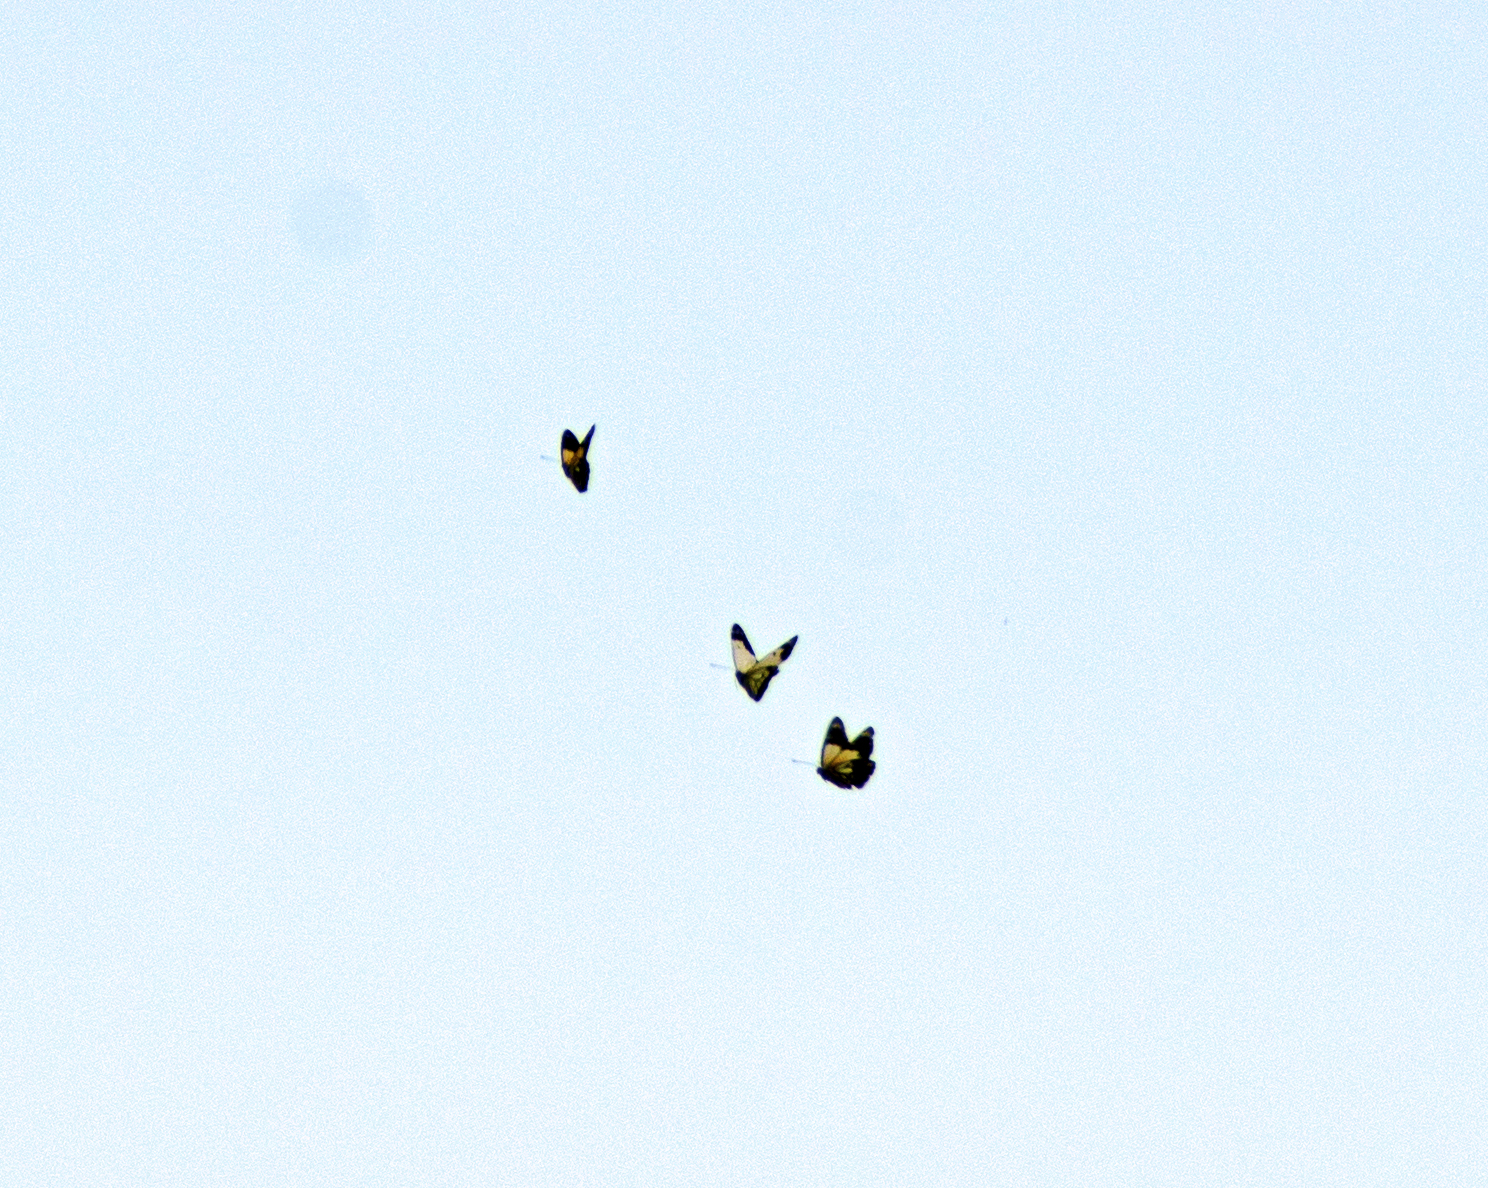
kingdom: Animalia
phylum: Arthropoda
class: Insecta
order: Lepidoptera
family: Pieridae
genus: Belenois
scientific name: Belenois java
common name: Caper white
